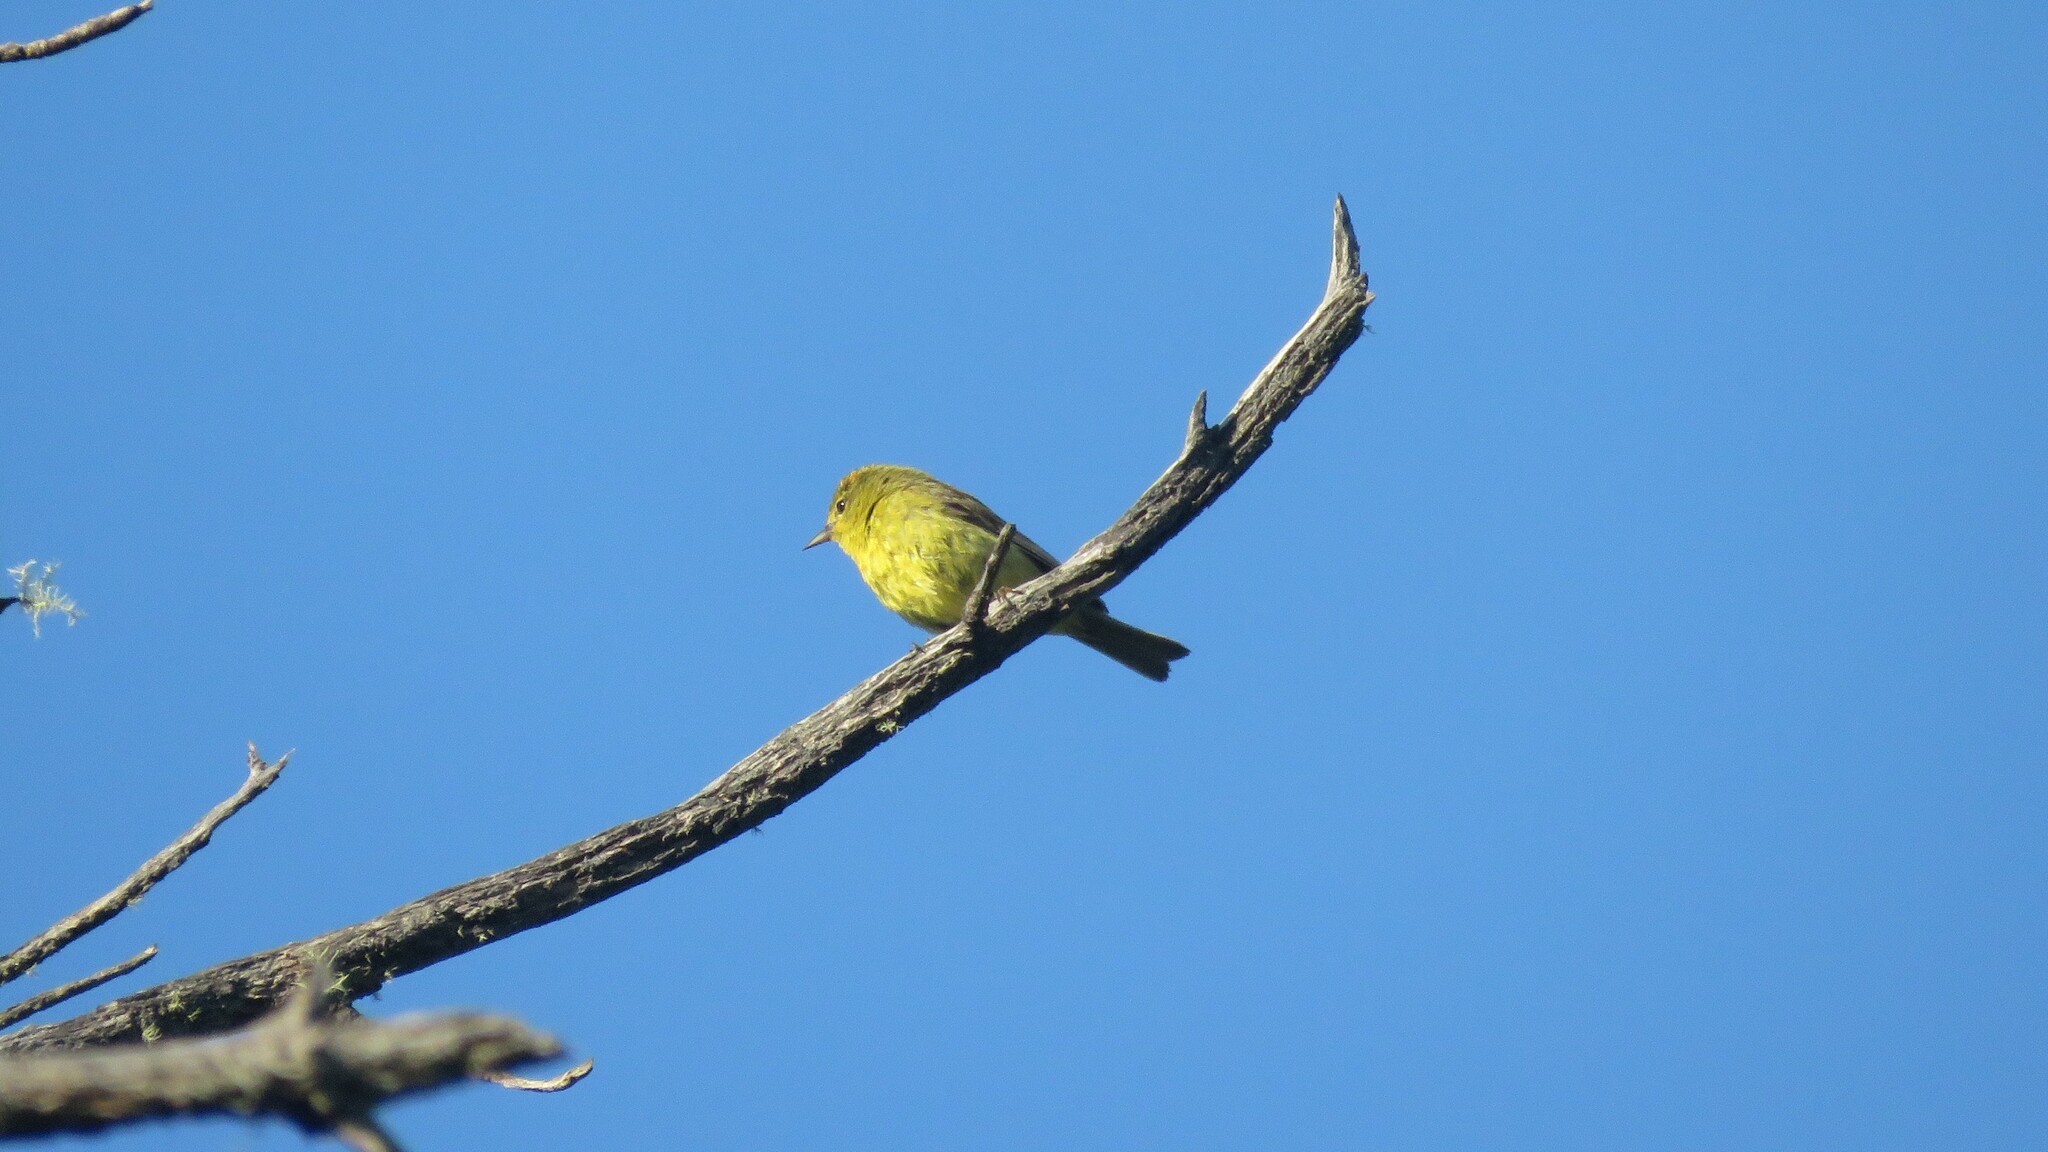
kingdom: Animalia
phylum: Chordata
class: Aves
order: Passeriformes
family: Parulidae
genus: Leiothlypis
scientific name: Leiothlypis celata
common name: Orange-crowned warbler
